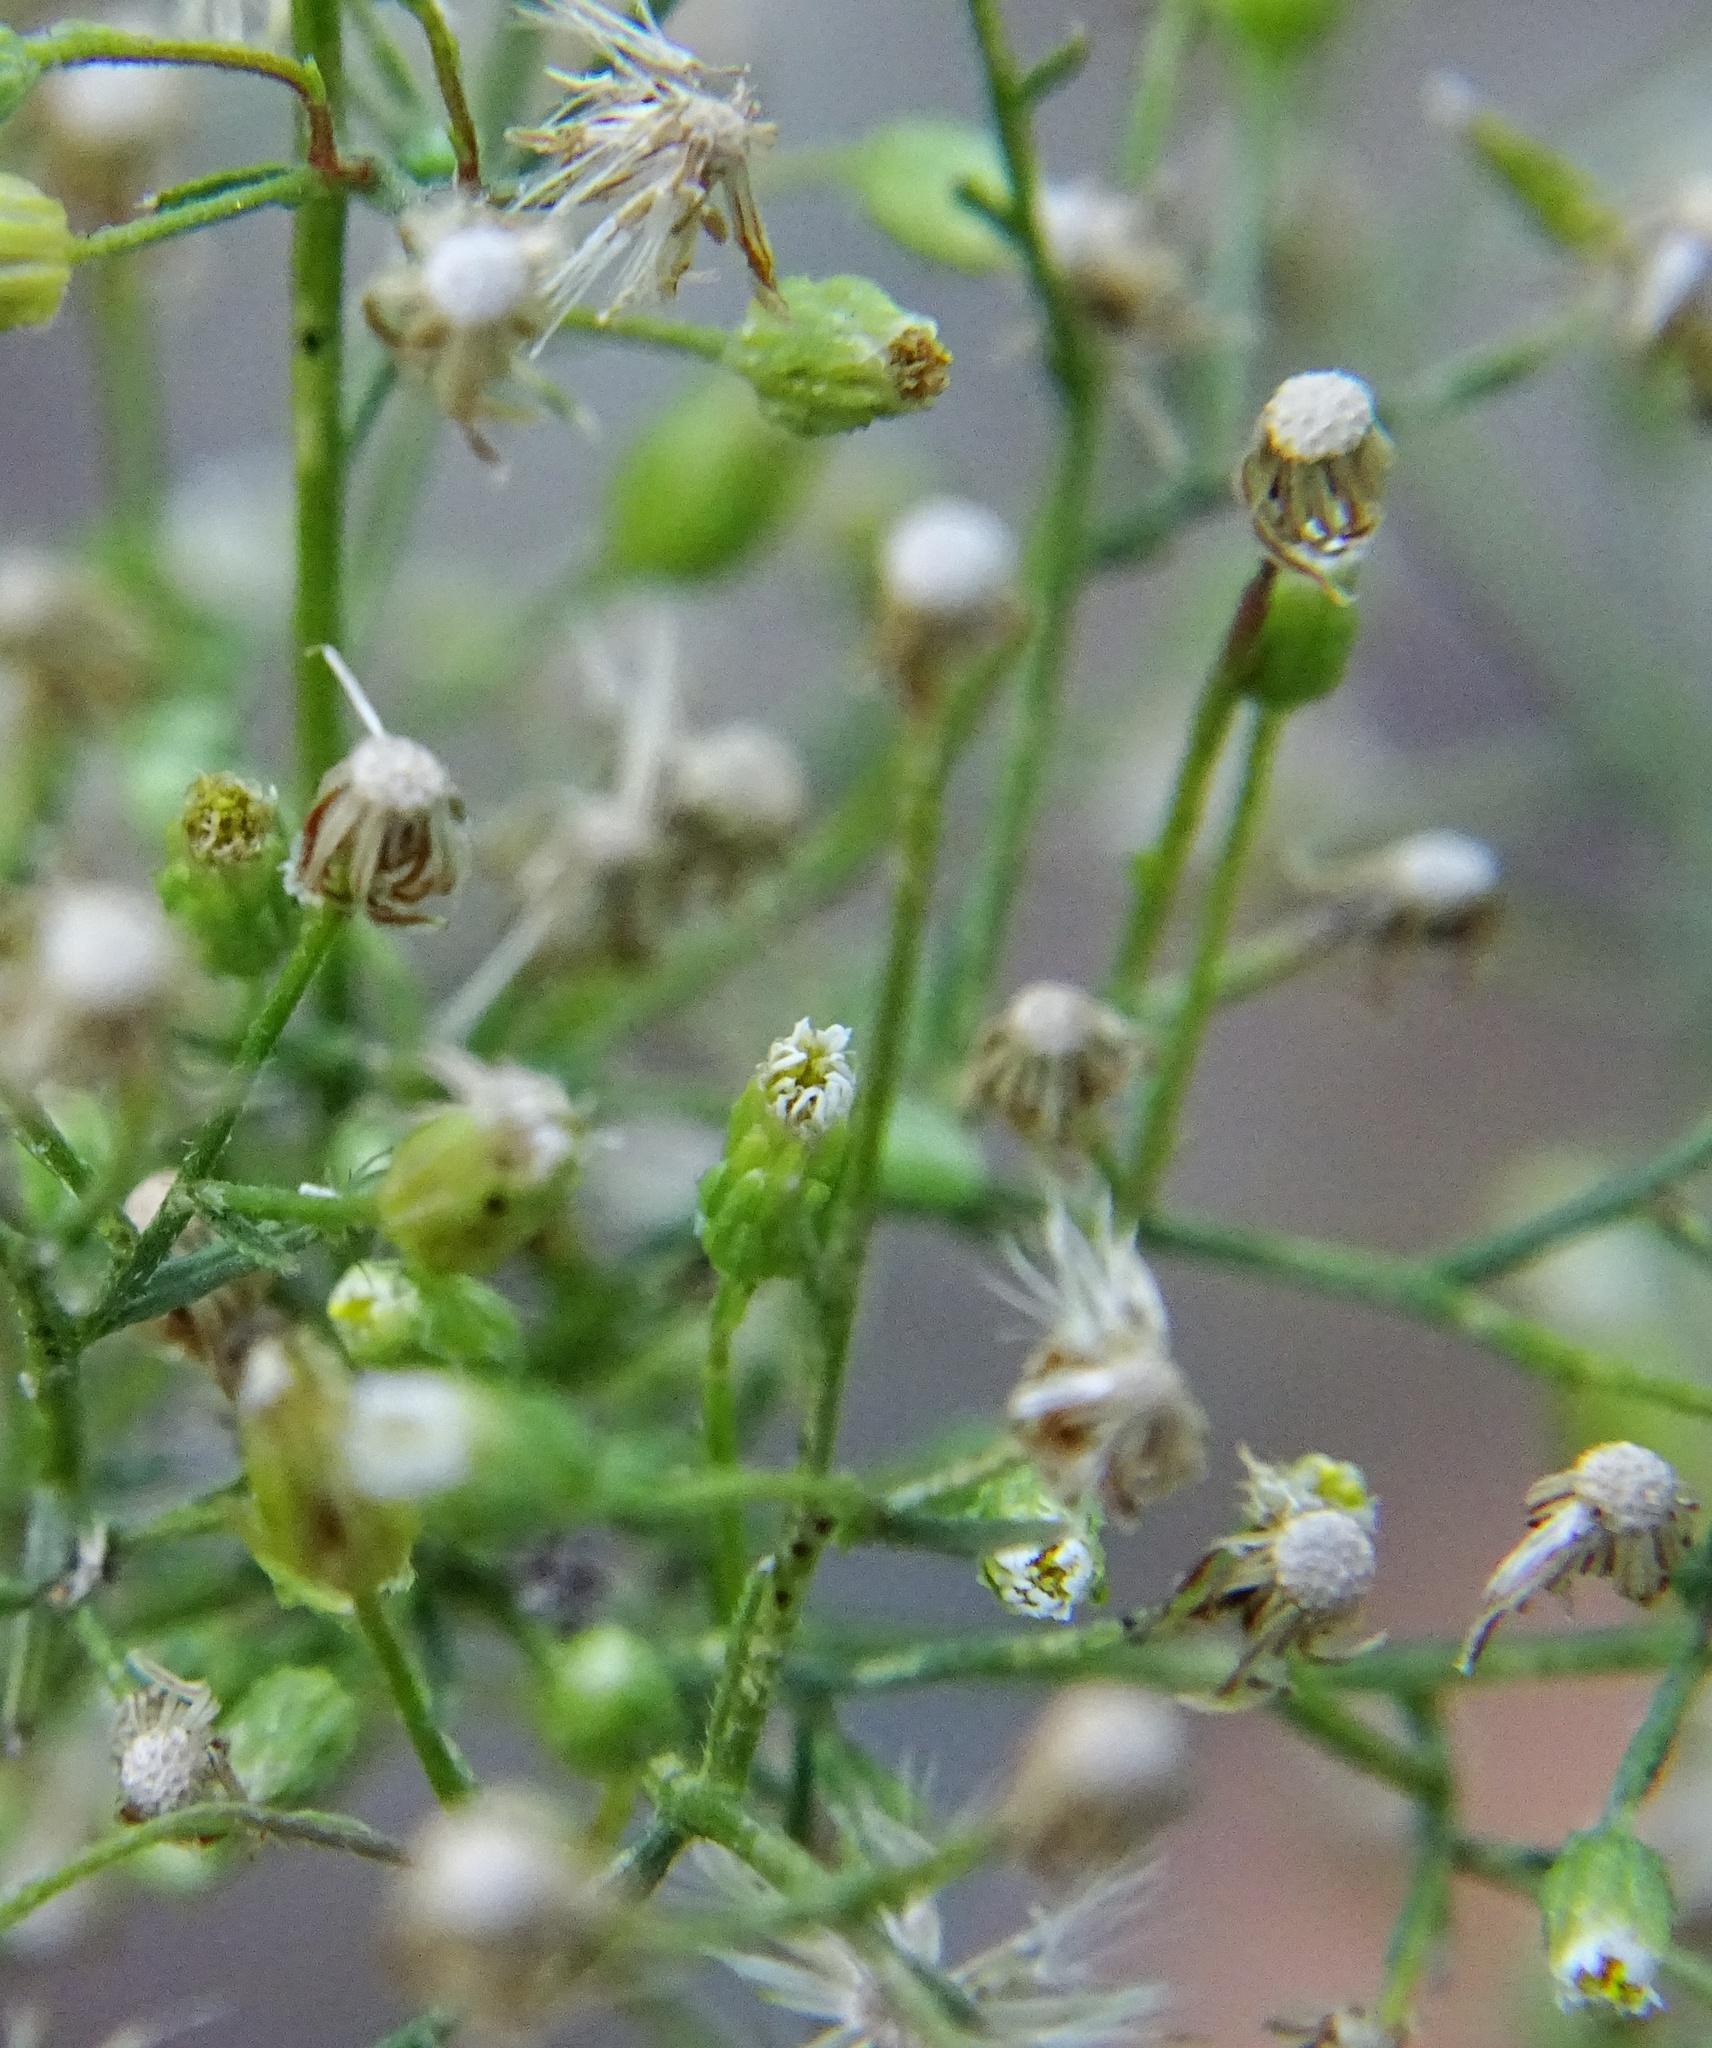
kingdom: Plantae
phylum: Tracheophyta
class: Magnoliopsida
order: Asterales
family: Asteraceae
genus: Erigeron
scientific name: Erigeron canadensis
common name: Canadian fleabane
